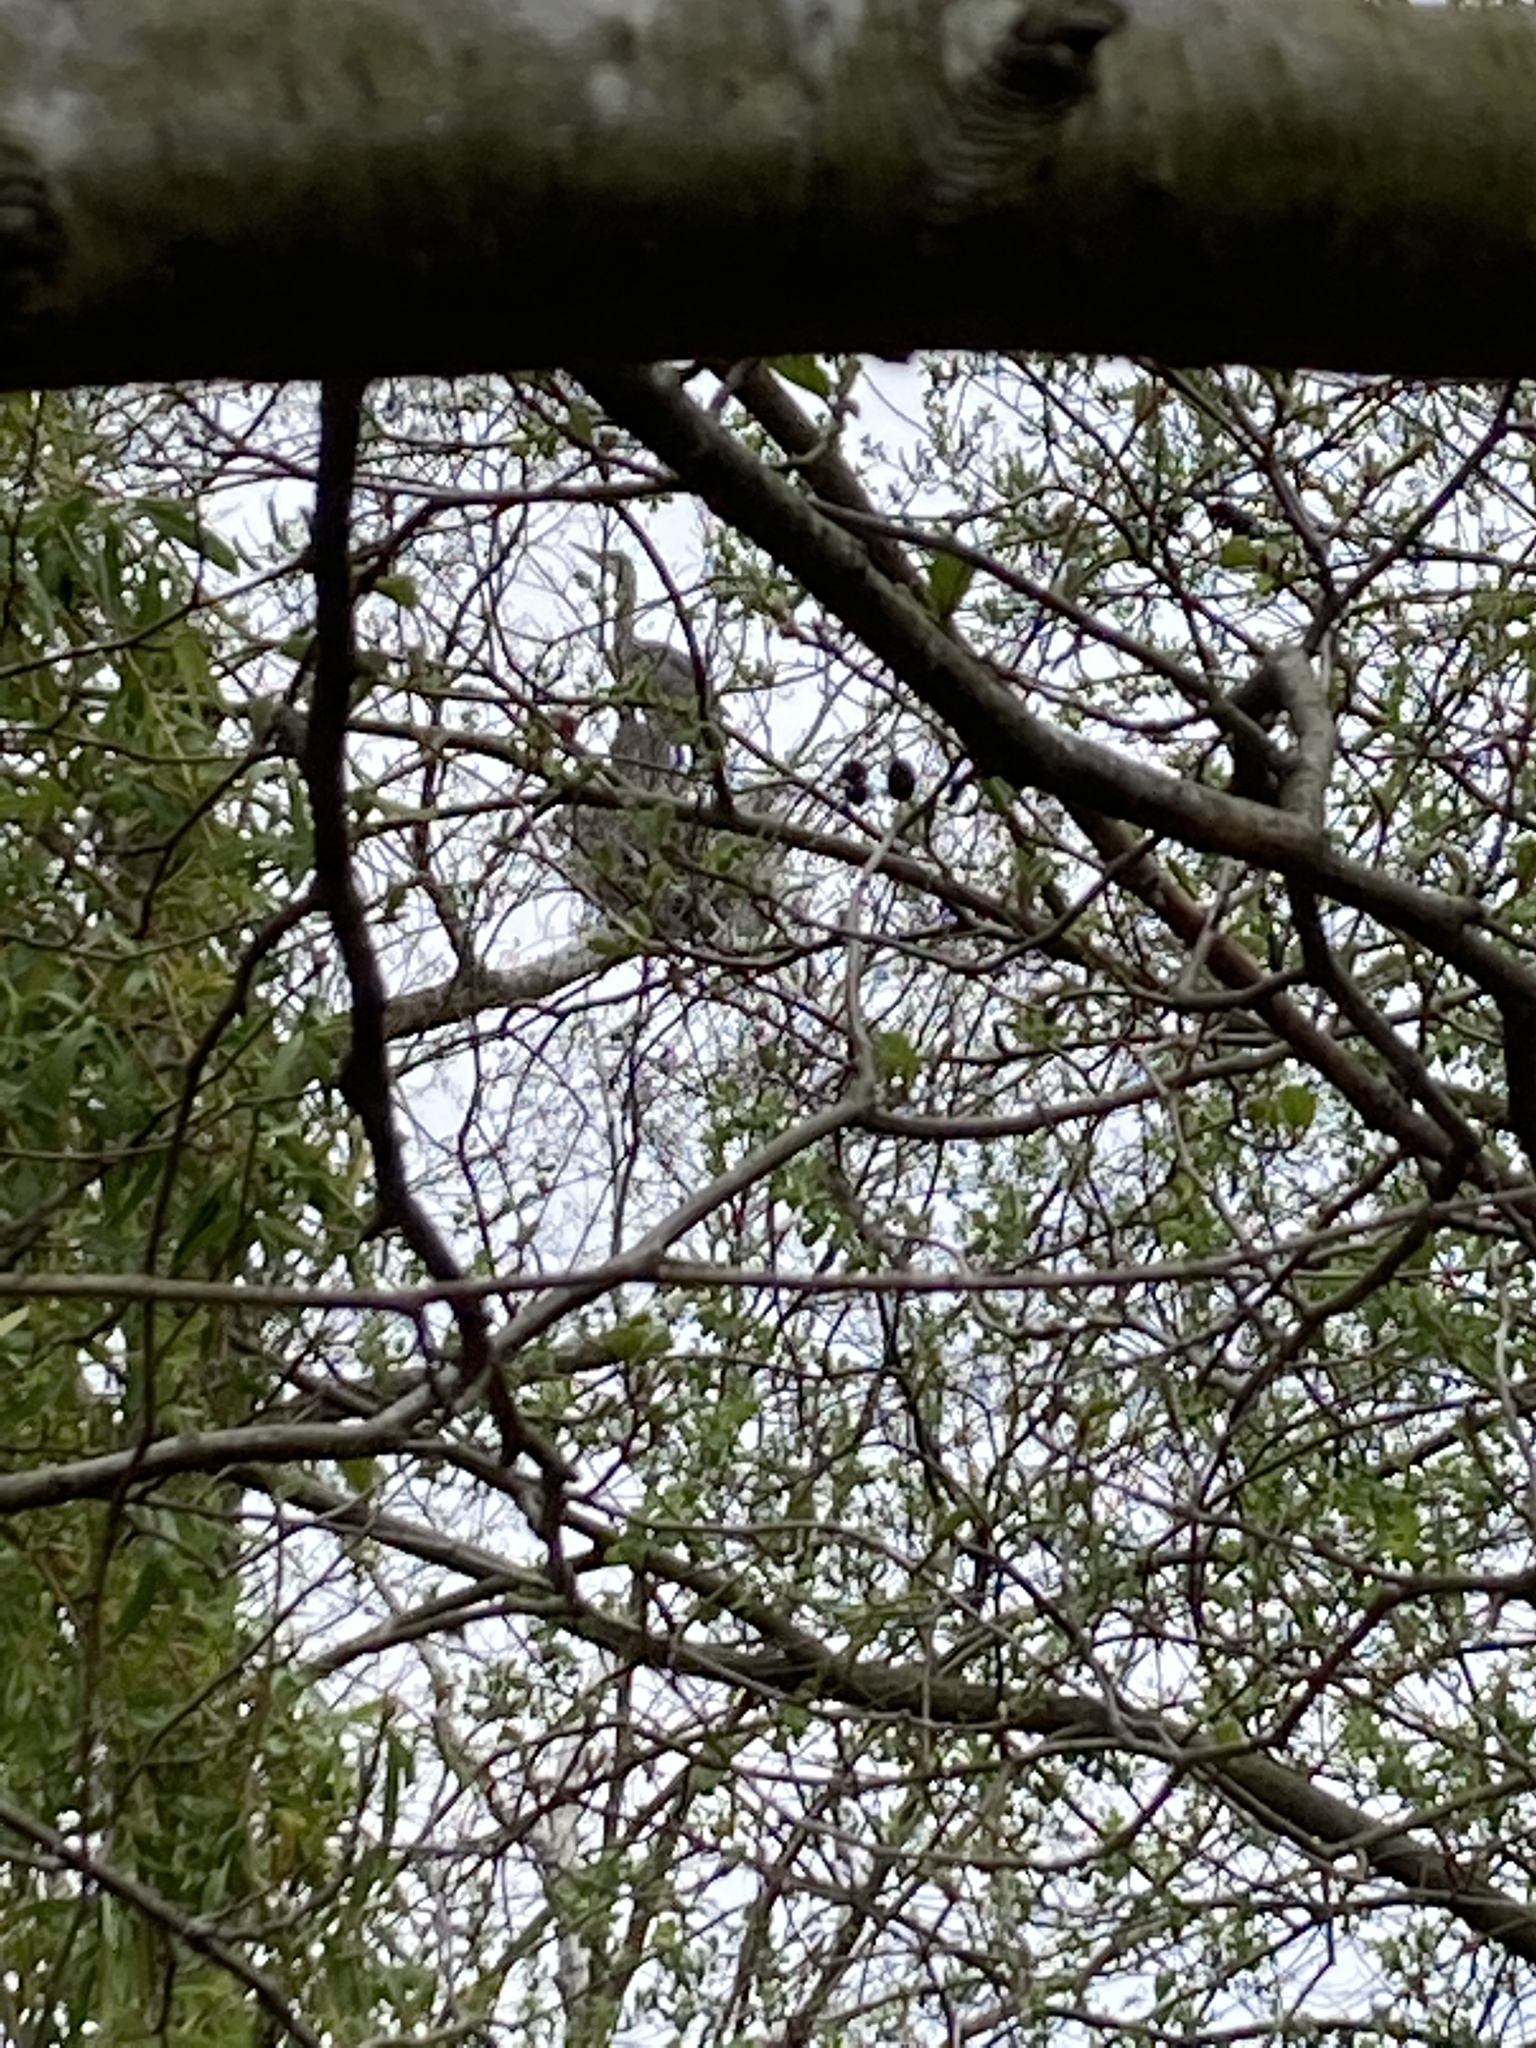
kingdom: Animalia
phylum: Chordata
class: Aves
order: Pelecaniformes
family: Ardeidae
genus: Ardea
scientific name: Ardea cinerea
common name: Grey heron
